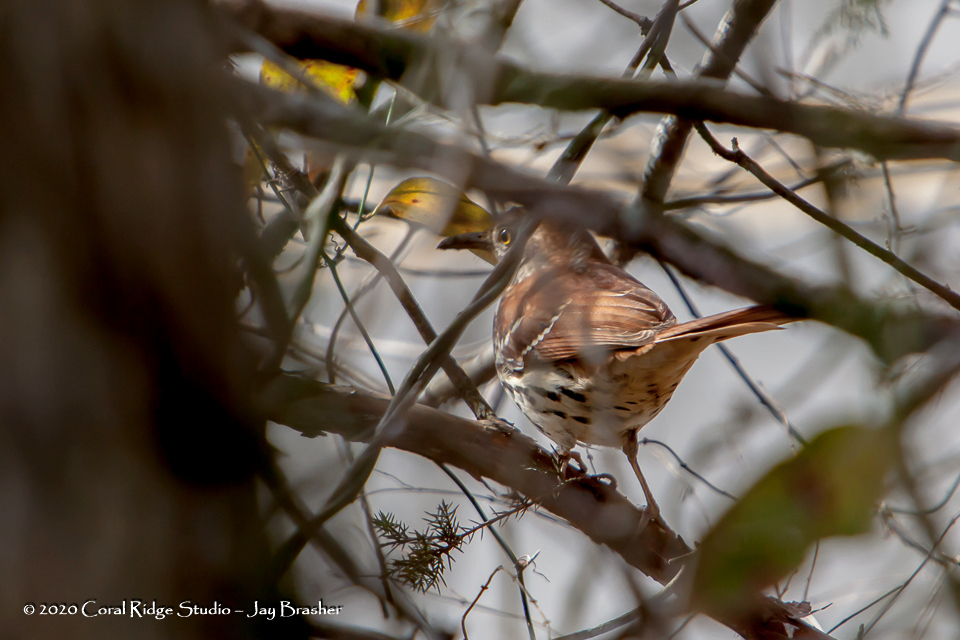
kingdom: Animalia
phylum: Chordata
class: Aves
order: Passeriformes
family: Mimidae
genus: Toxostoma
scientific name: Toxostoma rufum
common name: Brown thrasher
